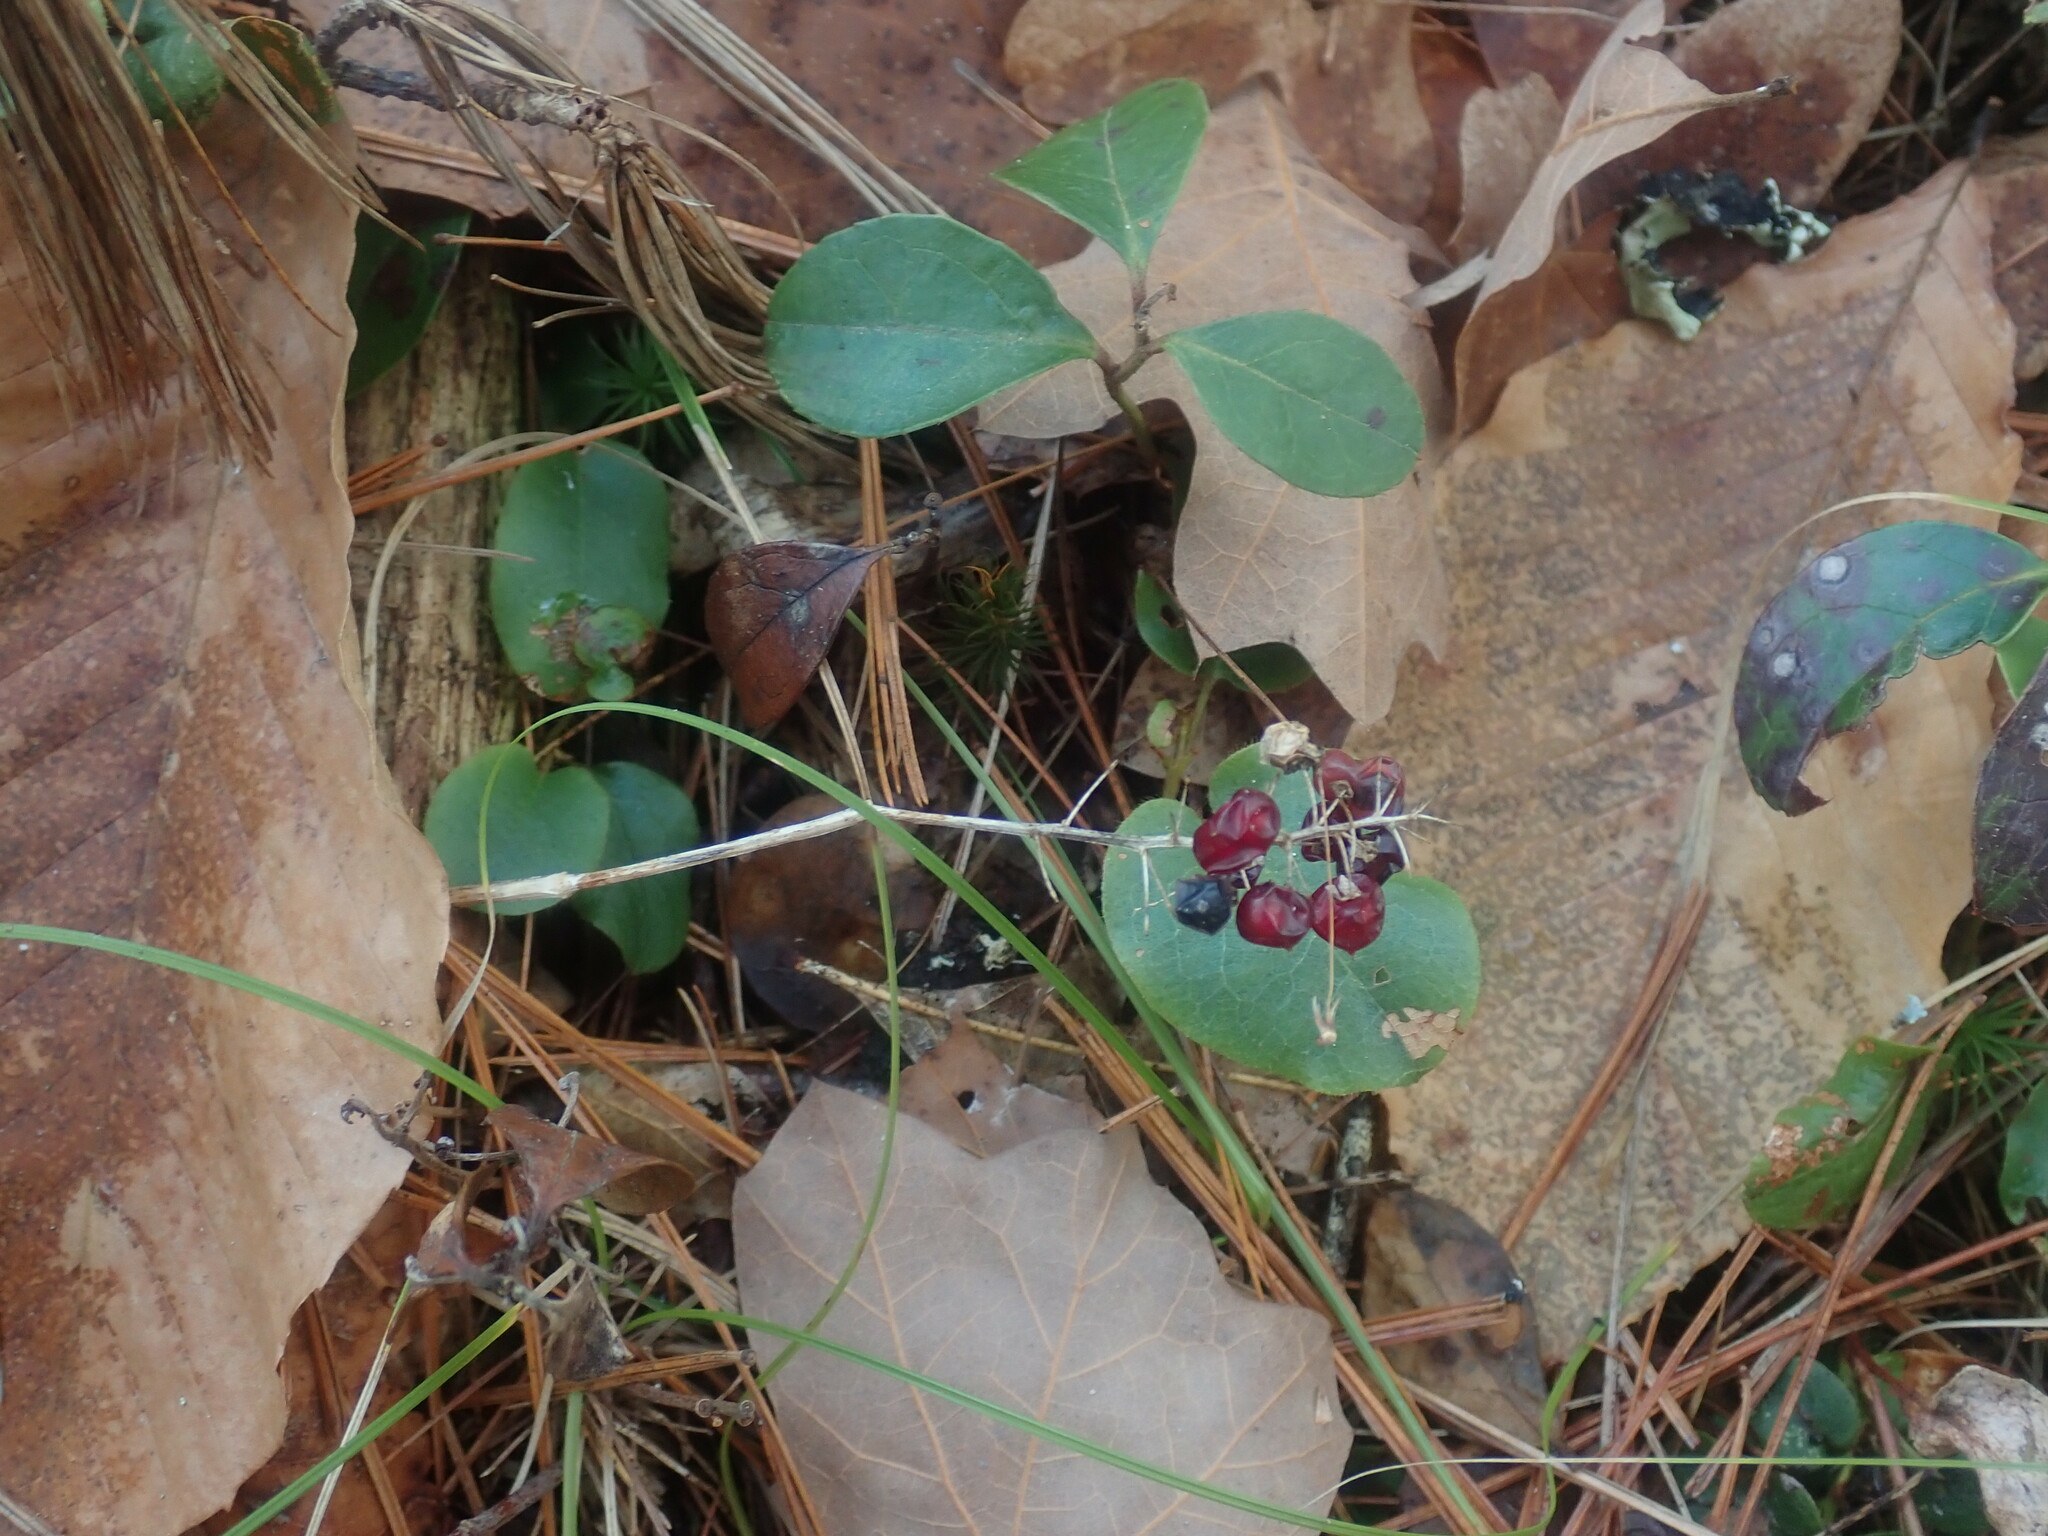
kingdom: Plantae
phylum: Tracheophyta
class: Liliopsida
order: Asparagales
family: Asparagaceae
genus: Maianthemum
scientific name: Maianthemum canadense
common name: False lily-of-the-valley
